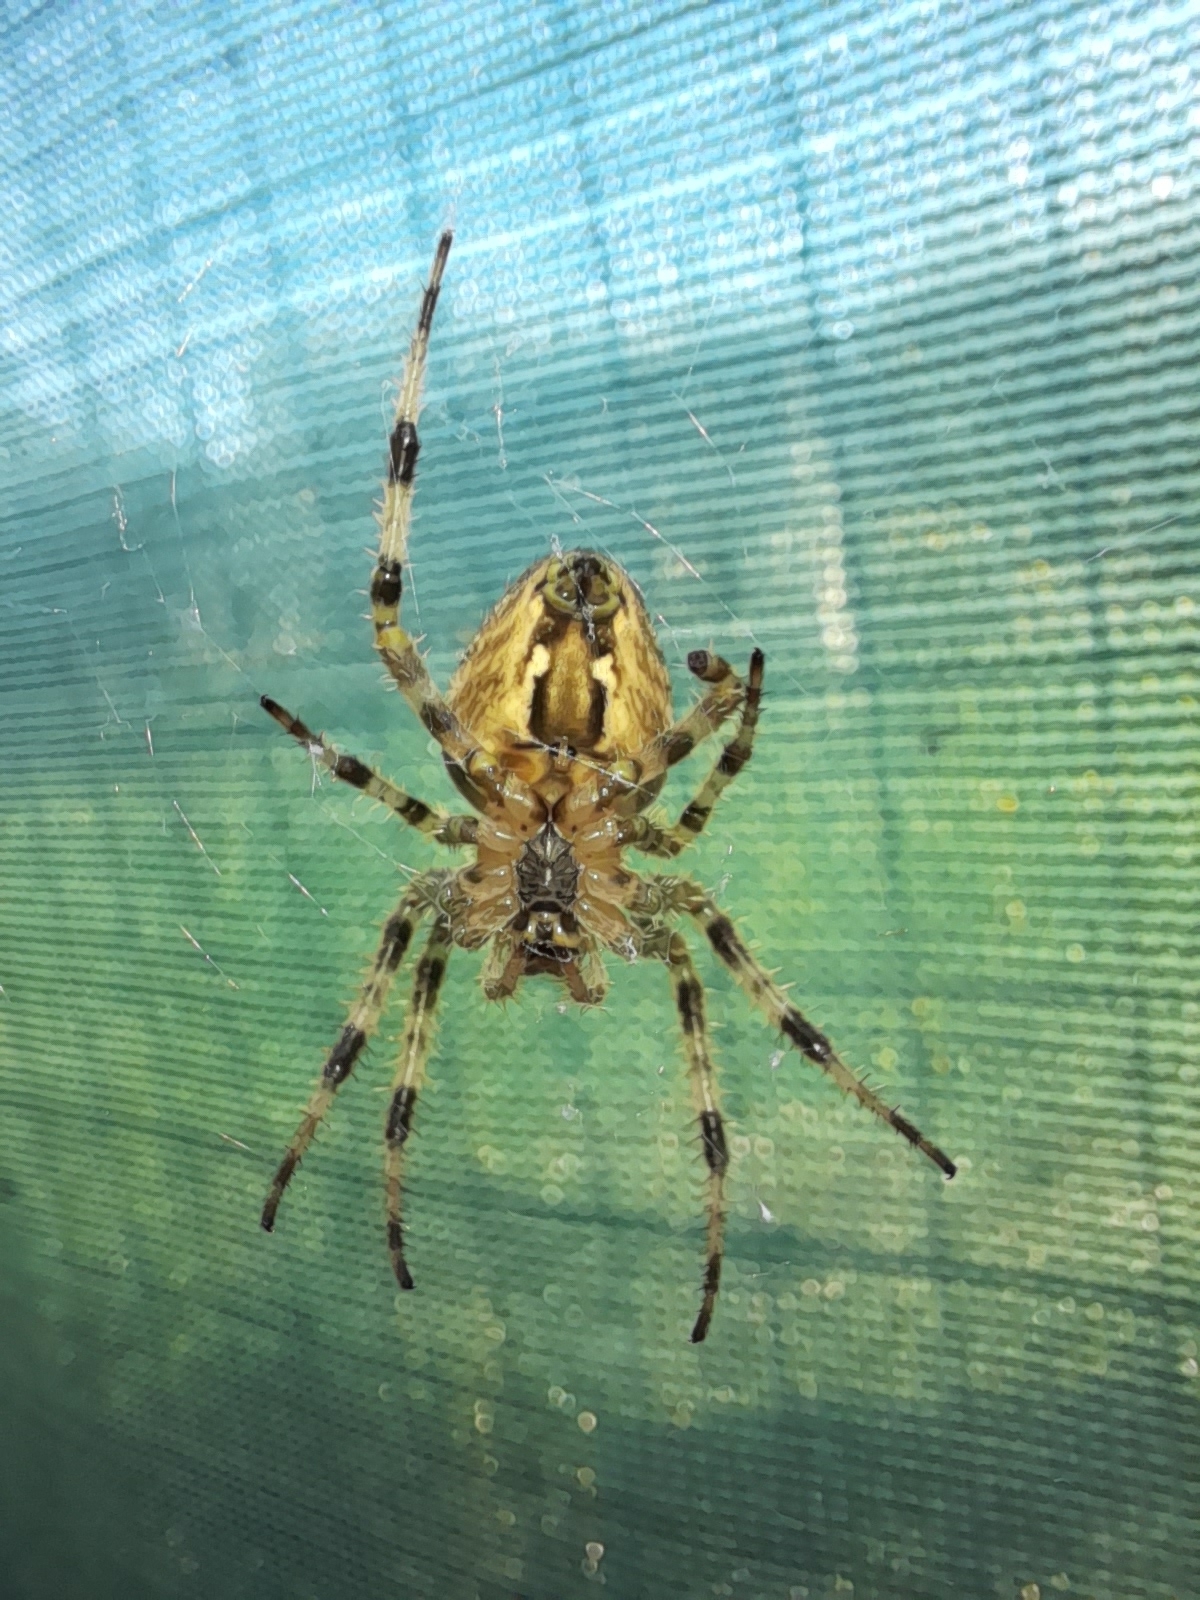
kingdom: Animalia
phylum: Arthropoda
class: Arachnida
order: Araneae
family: Araneidae
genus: Araneus
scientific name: Araneus diadematus
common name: Cross orbweaver
